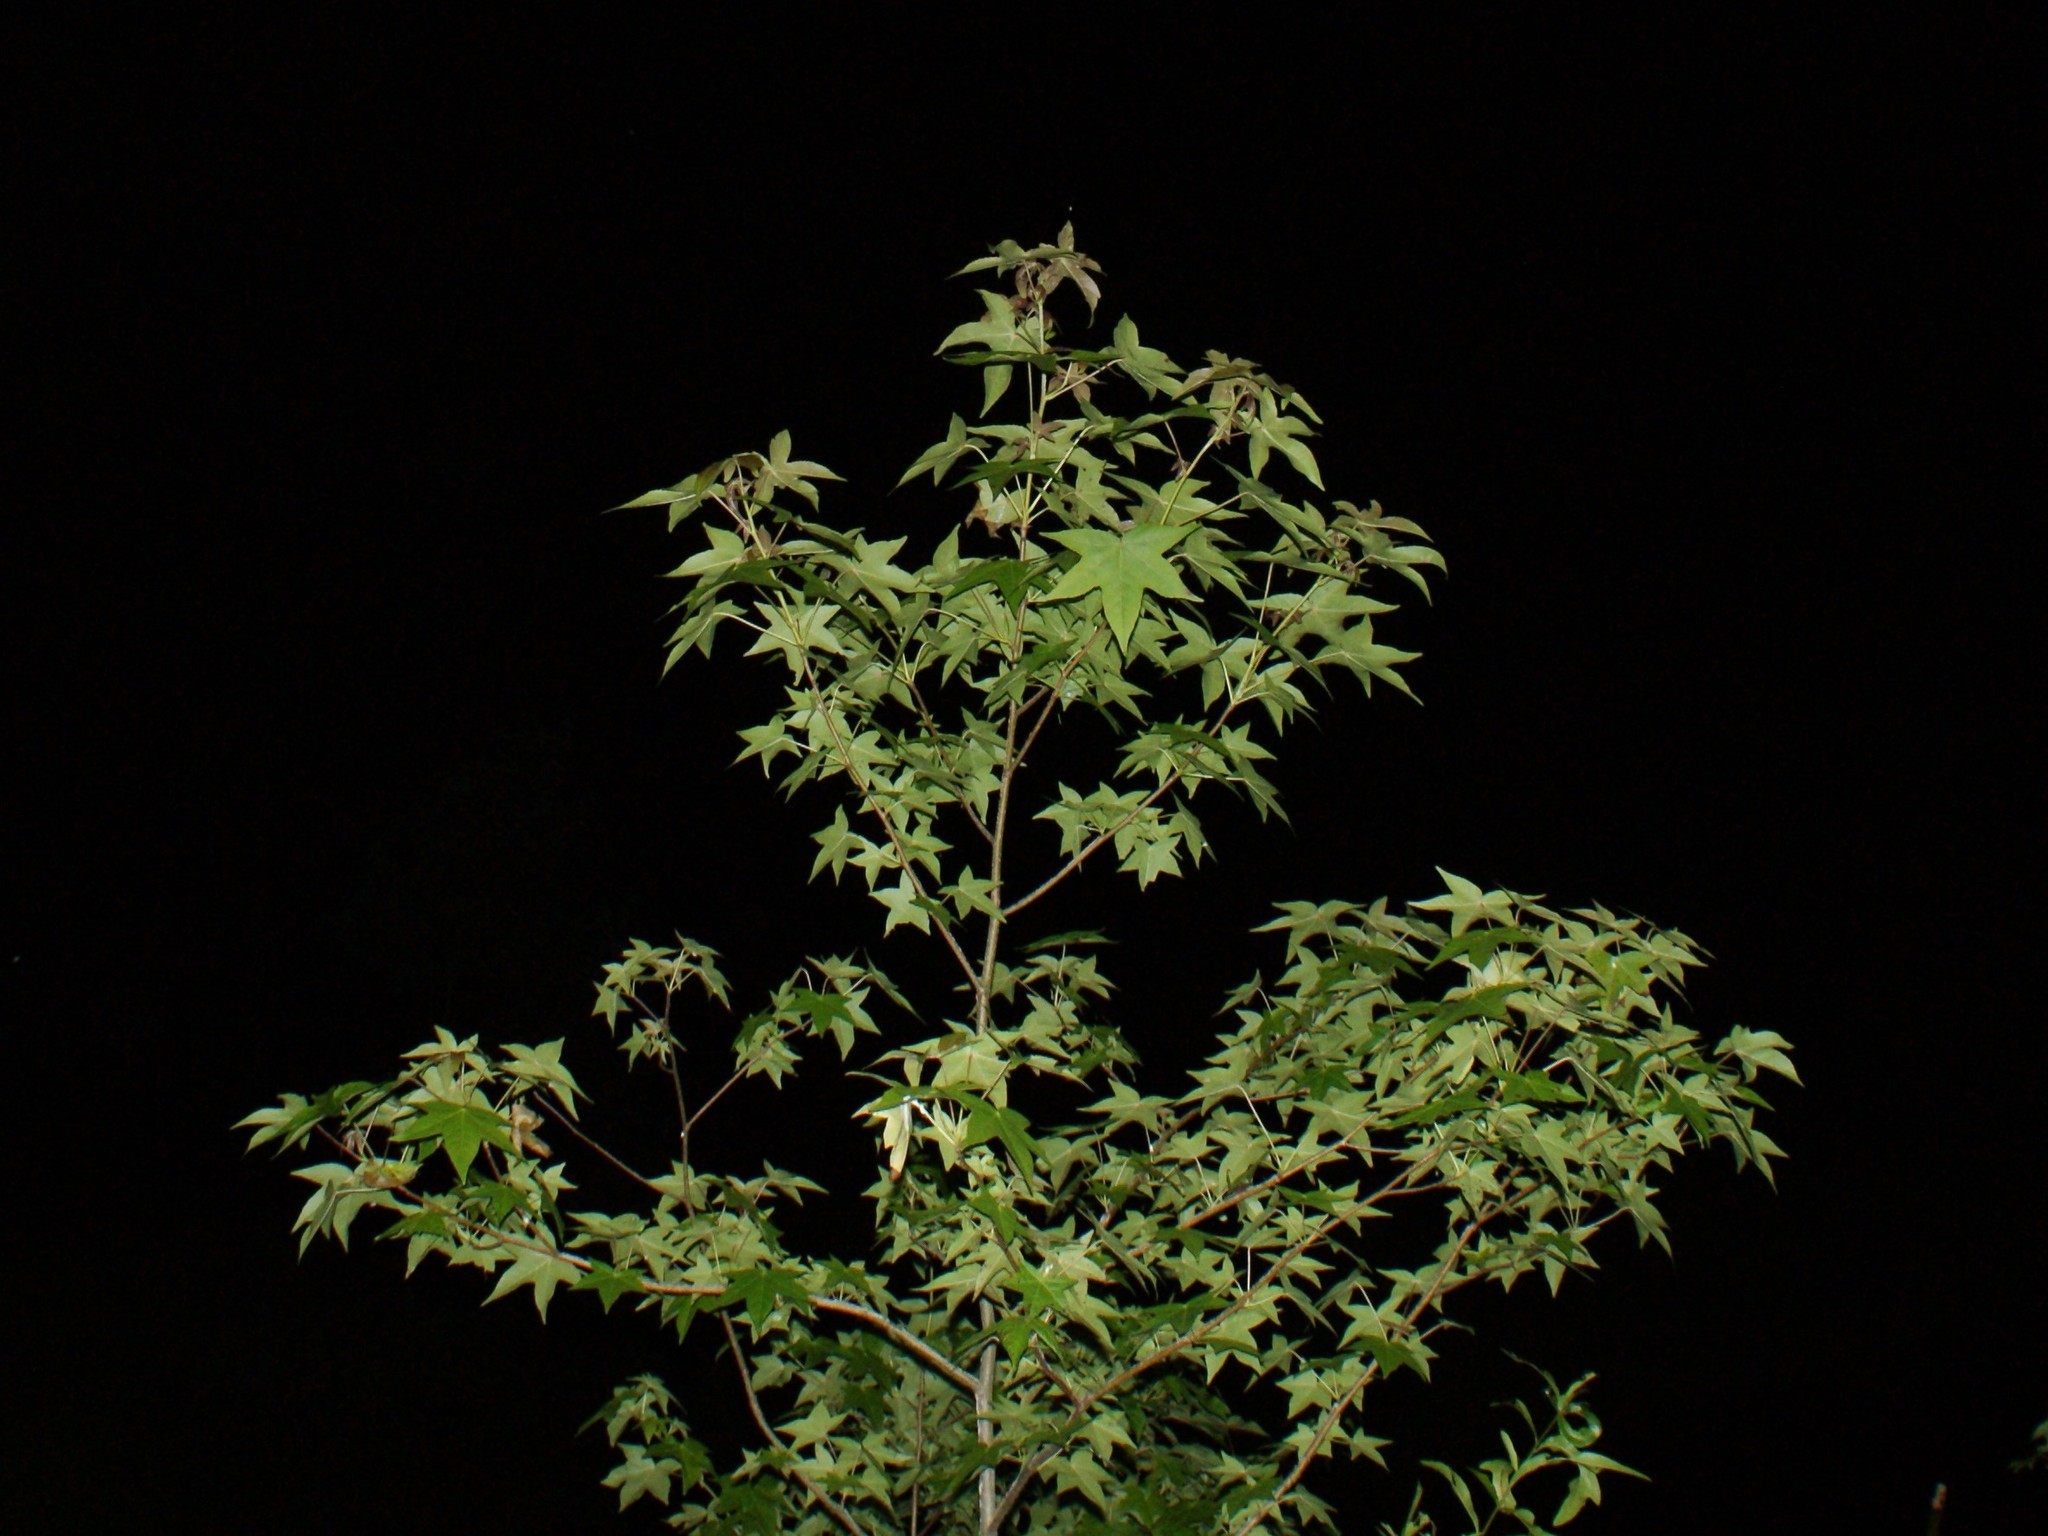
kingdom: Plantae
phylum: Tracheophyta
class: Magnoliopsida
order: Saxifragales
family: Altingiaceae
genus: Liquidambar
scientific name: Liquidambar styraciflua
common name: Sweet gum
